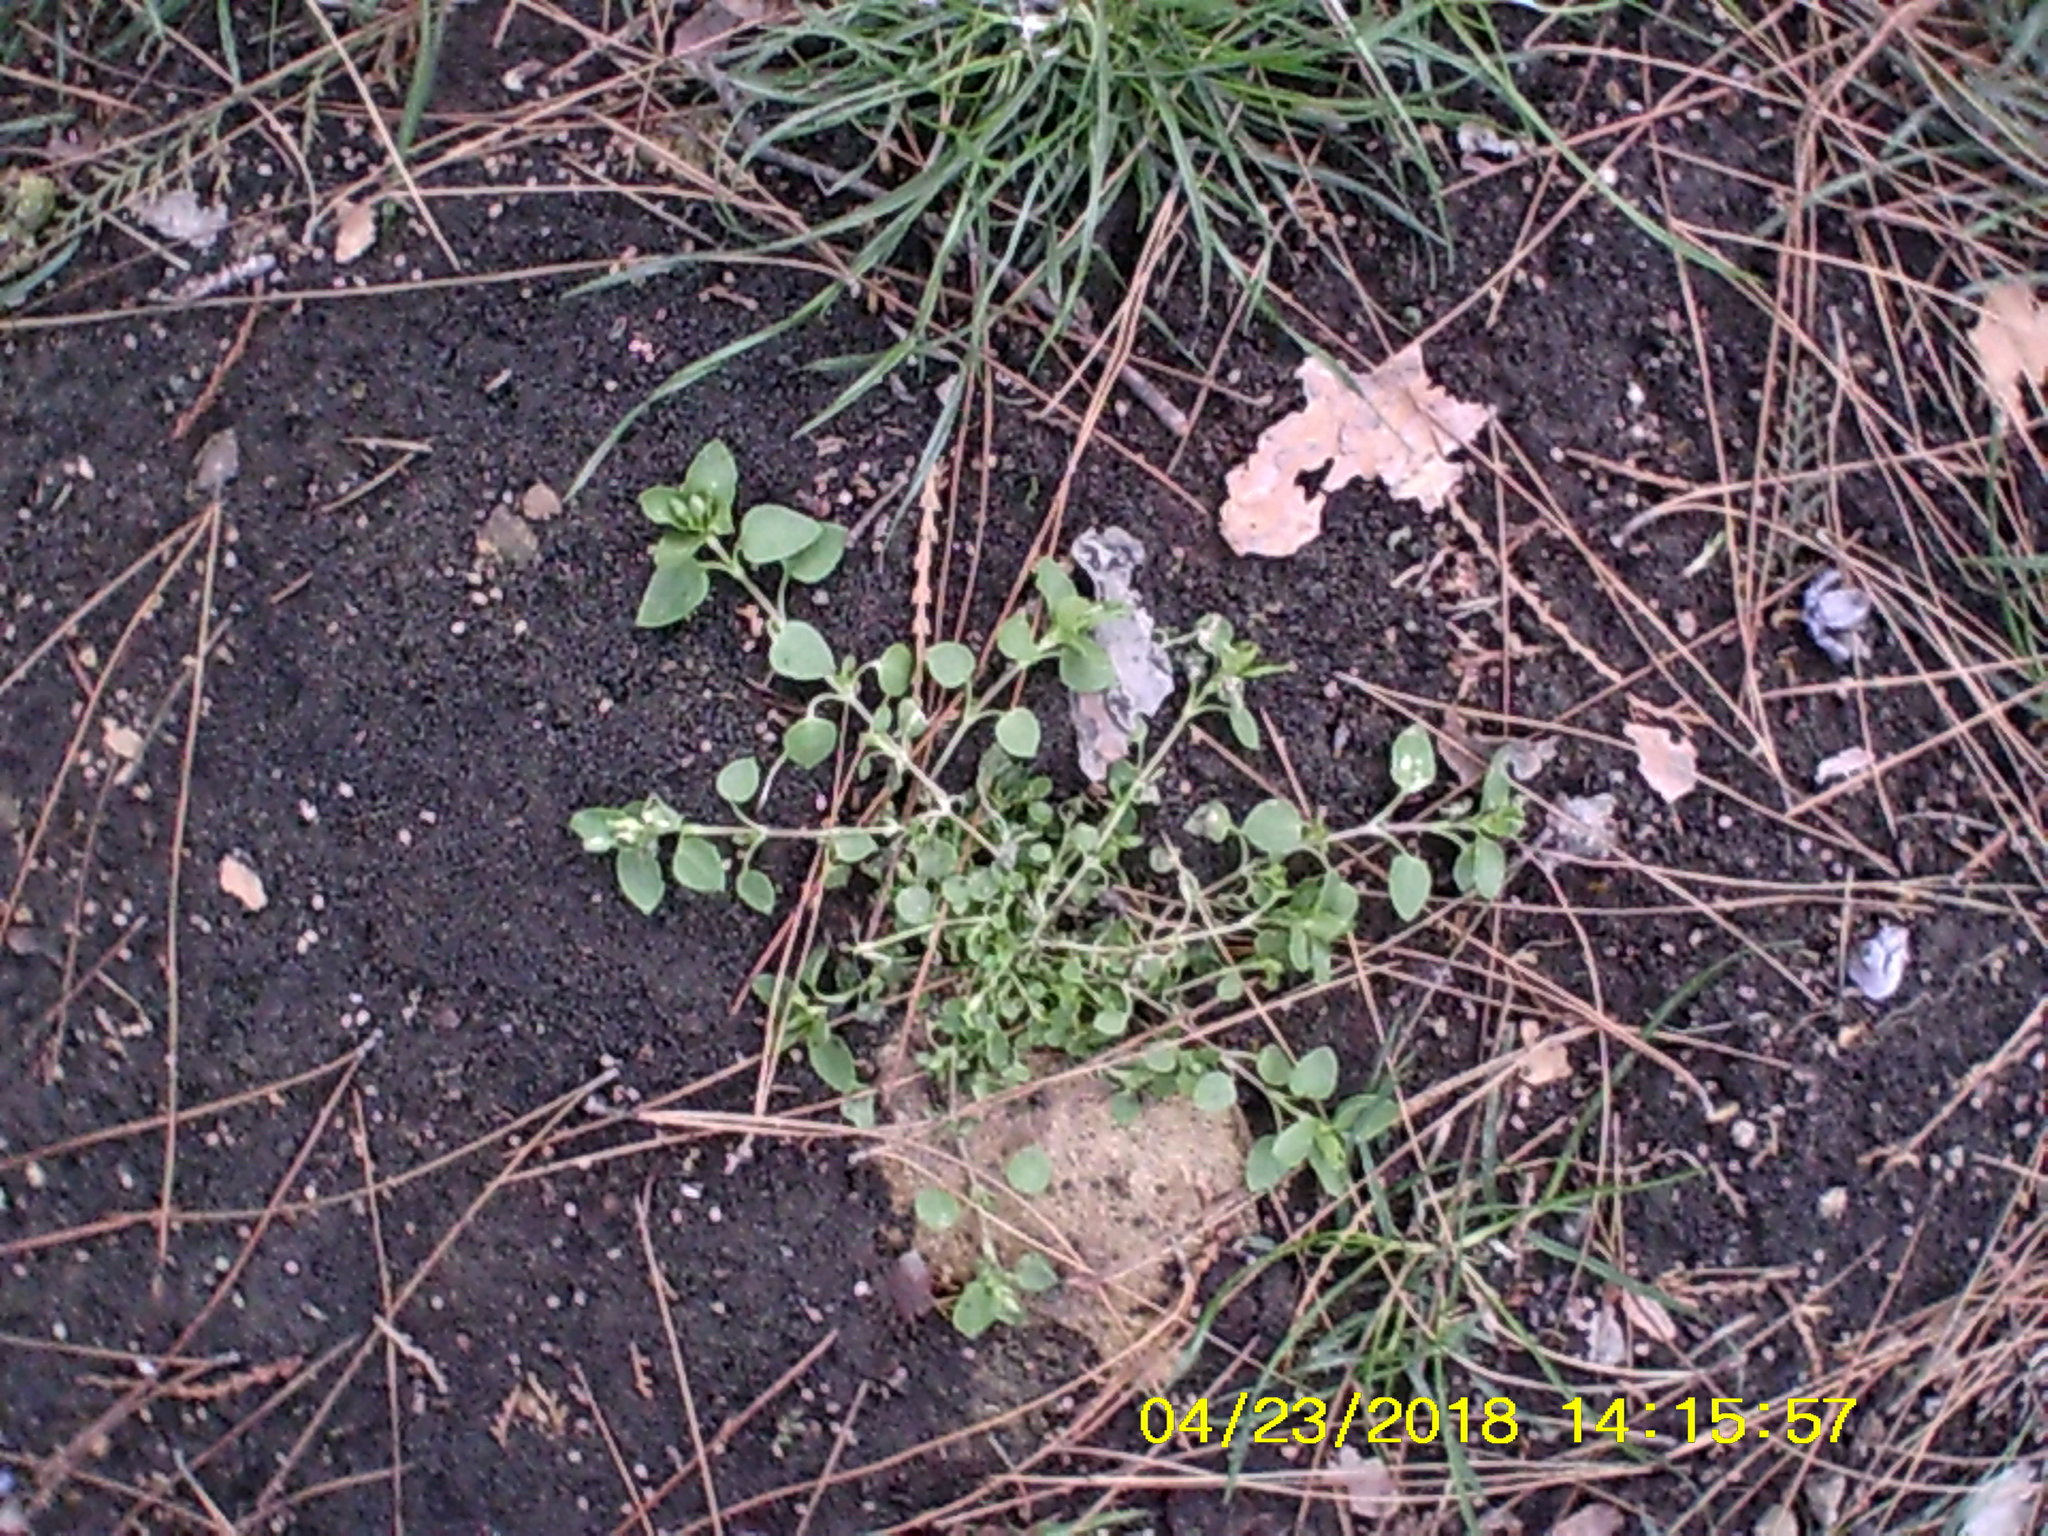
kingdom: Plantae
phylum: Tracheophyta
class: Magnoliopsida
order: Caryophyllales
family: Caryophyllaceae
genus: Stellaria
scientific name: Stellaria media
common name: Common chickweed
